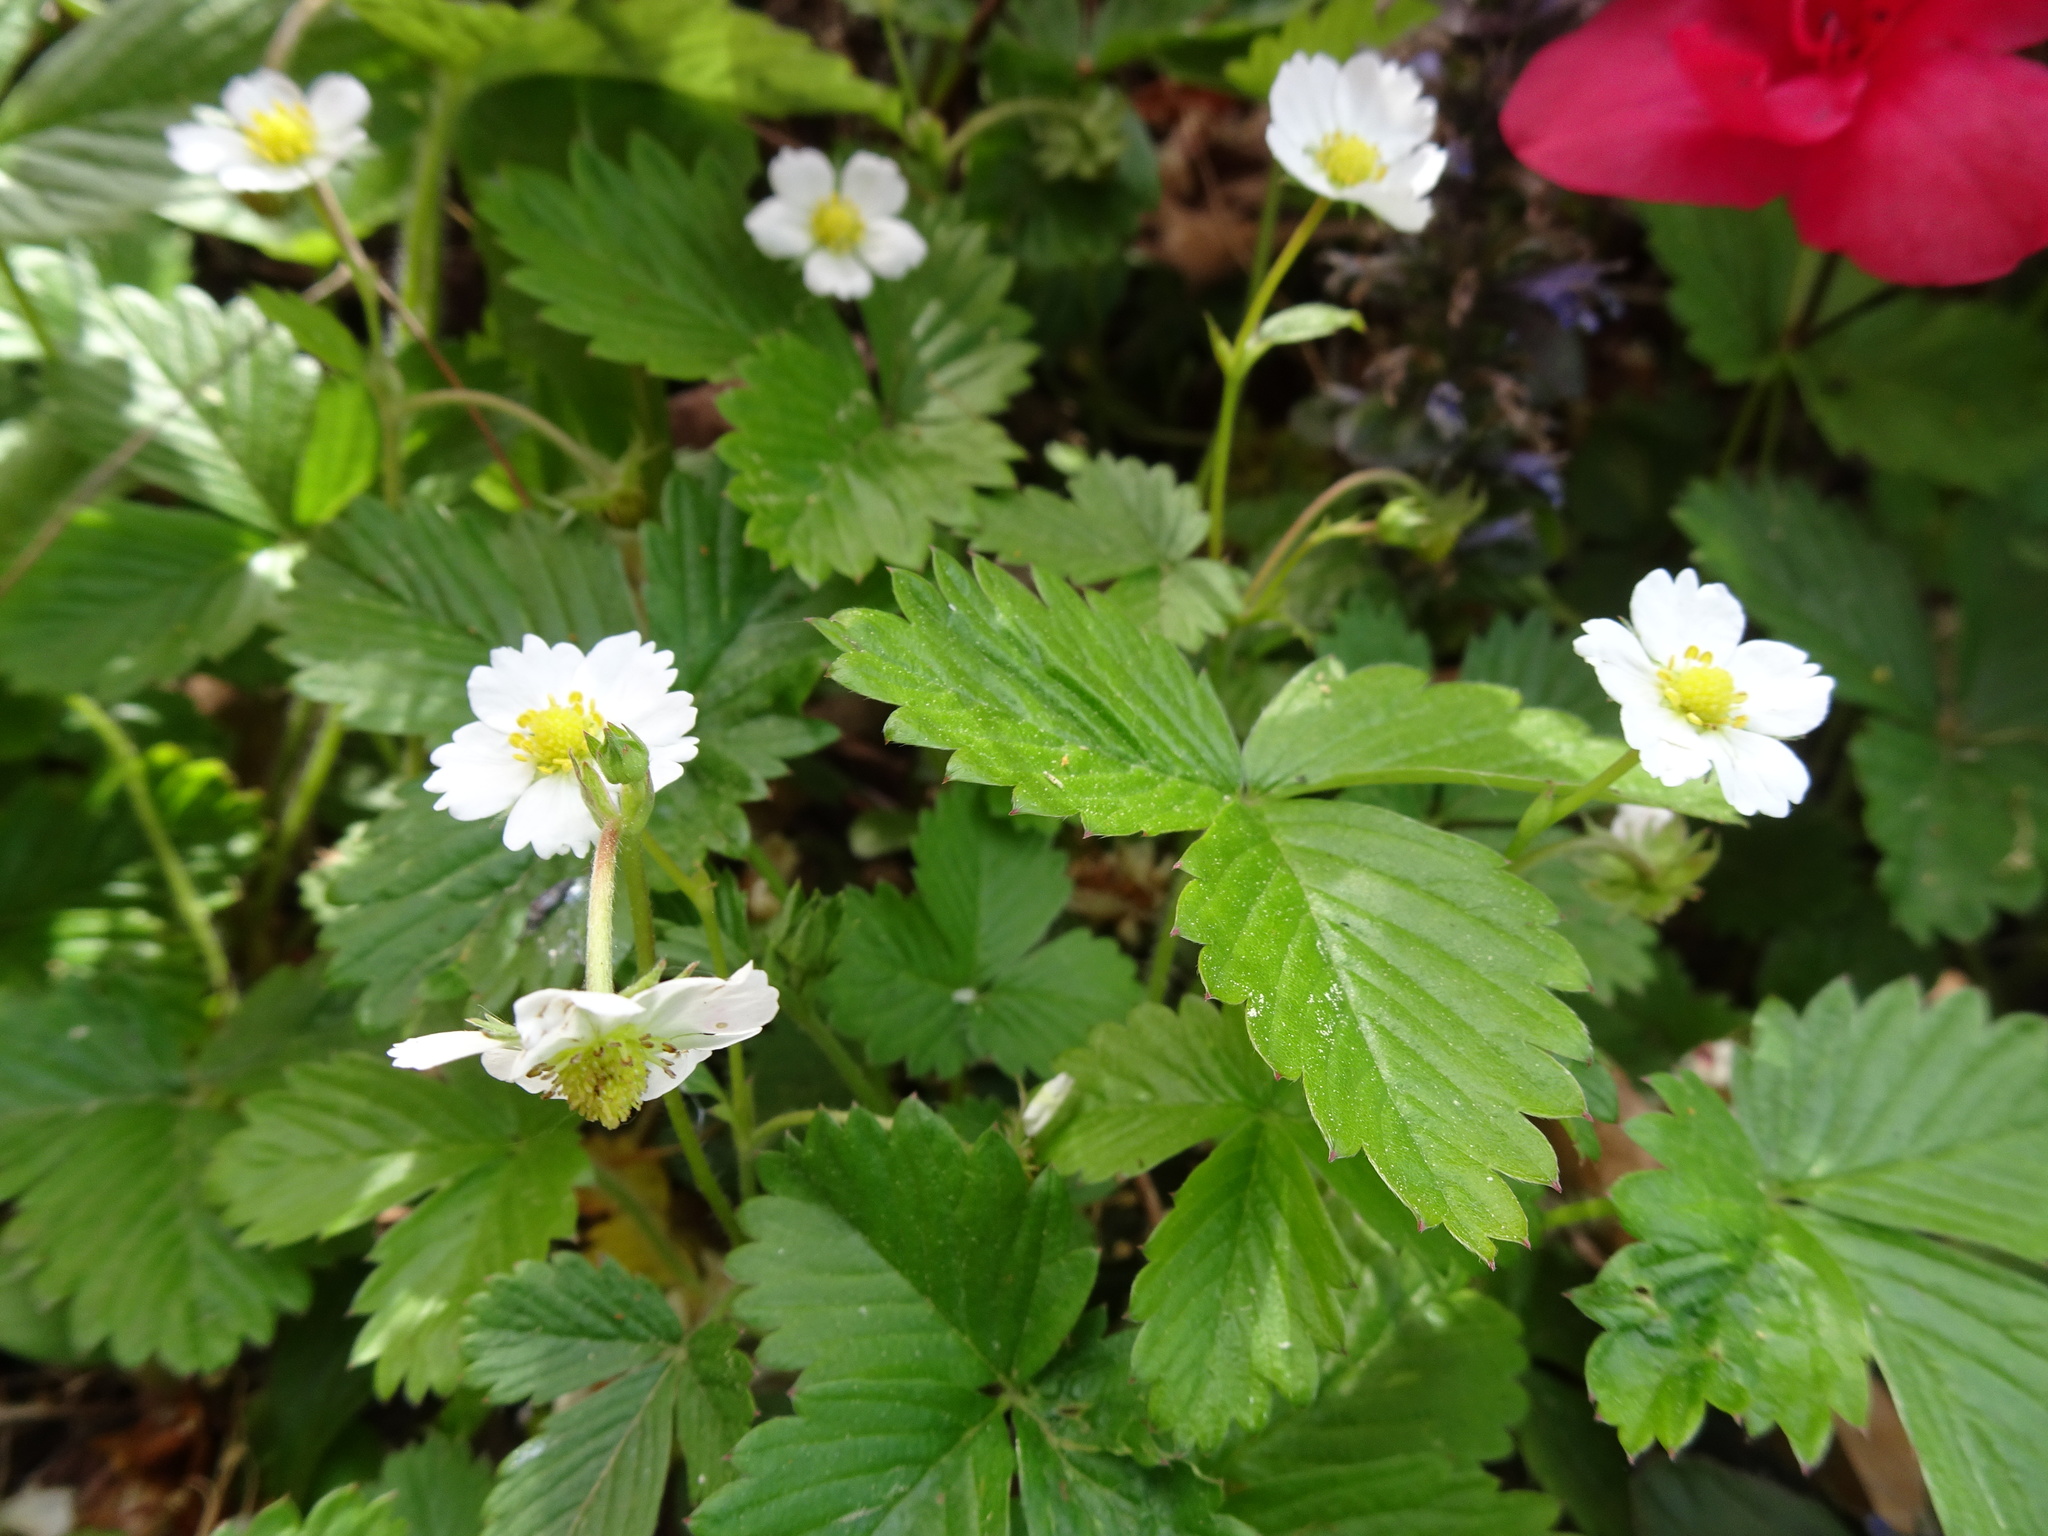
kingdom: Plantae
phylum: Tracheophyta
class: Magnoliopsida
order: Rosales
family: Rosaceae
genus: Fragaria
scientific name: Fragaria vesca
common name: Wild strawberry
